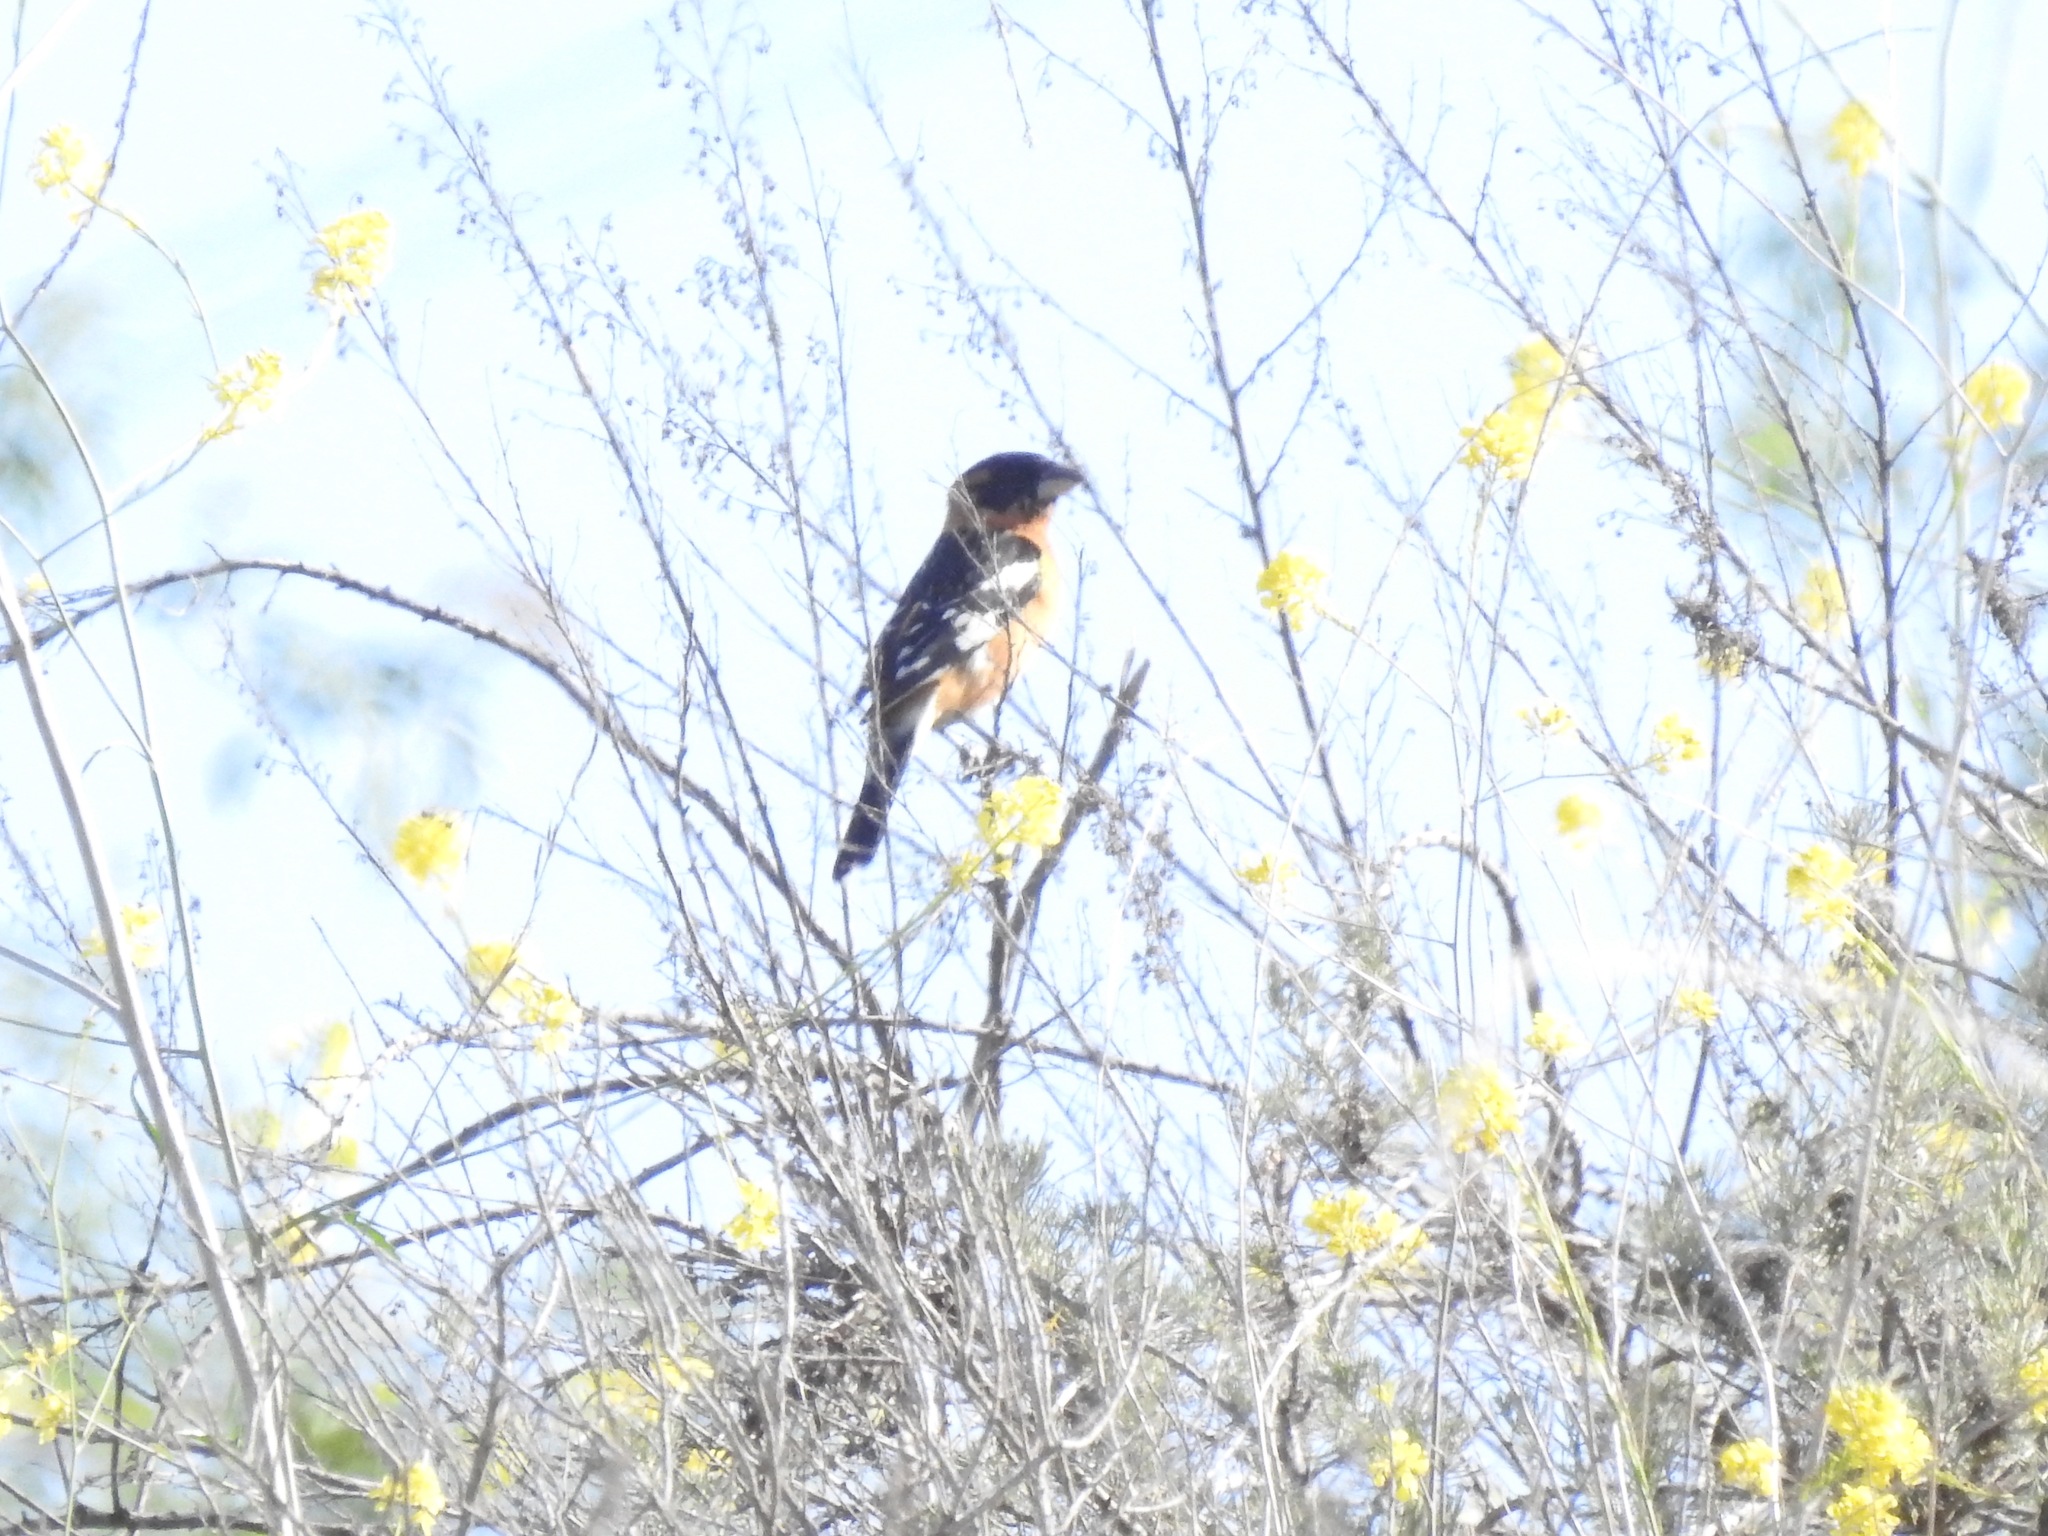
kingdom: Animalia
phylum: Chordata
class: Aves
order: Passeriformes
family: Cardinalidae
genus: Pheucticus
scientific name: Pheucticus melanocephalus
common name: Black-headed grosbeak
